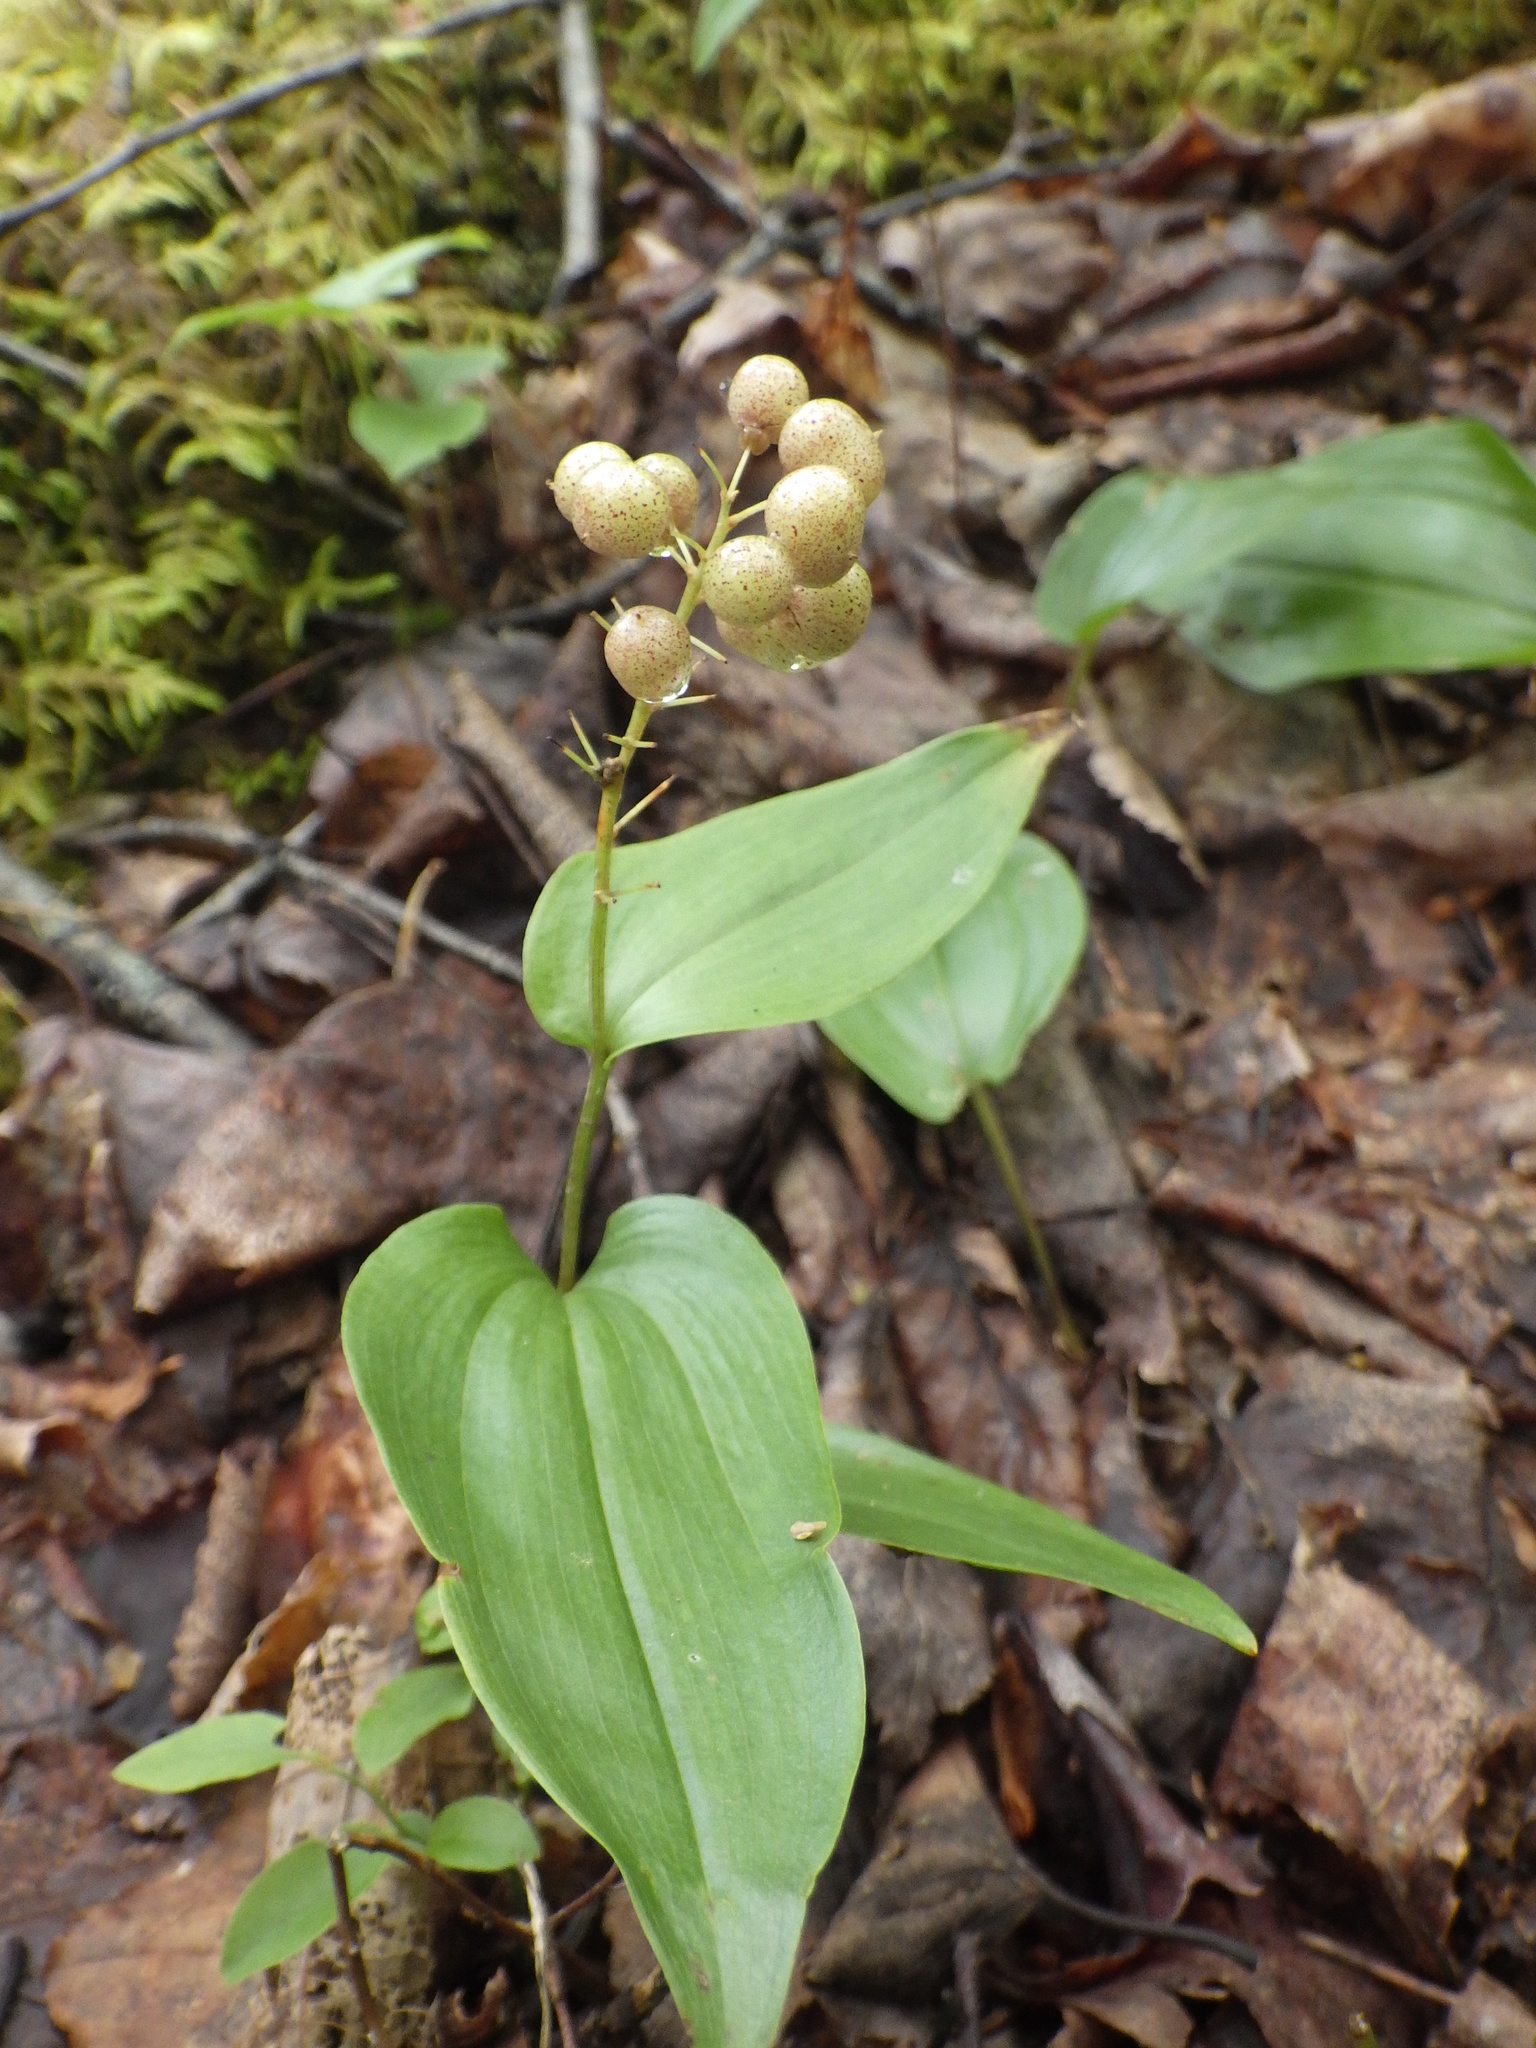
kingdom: Plantae
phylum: Tracheophyta
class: Liliopsida
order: Asparagales
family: Asparagaceae
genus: Maianthemum
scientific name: Maianthemum canadense
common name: False lily-of-the-valley
